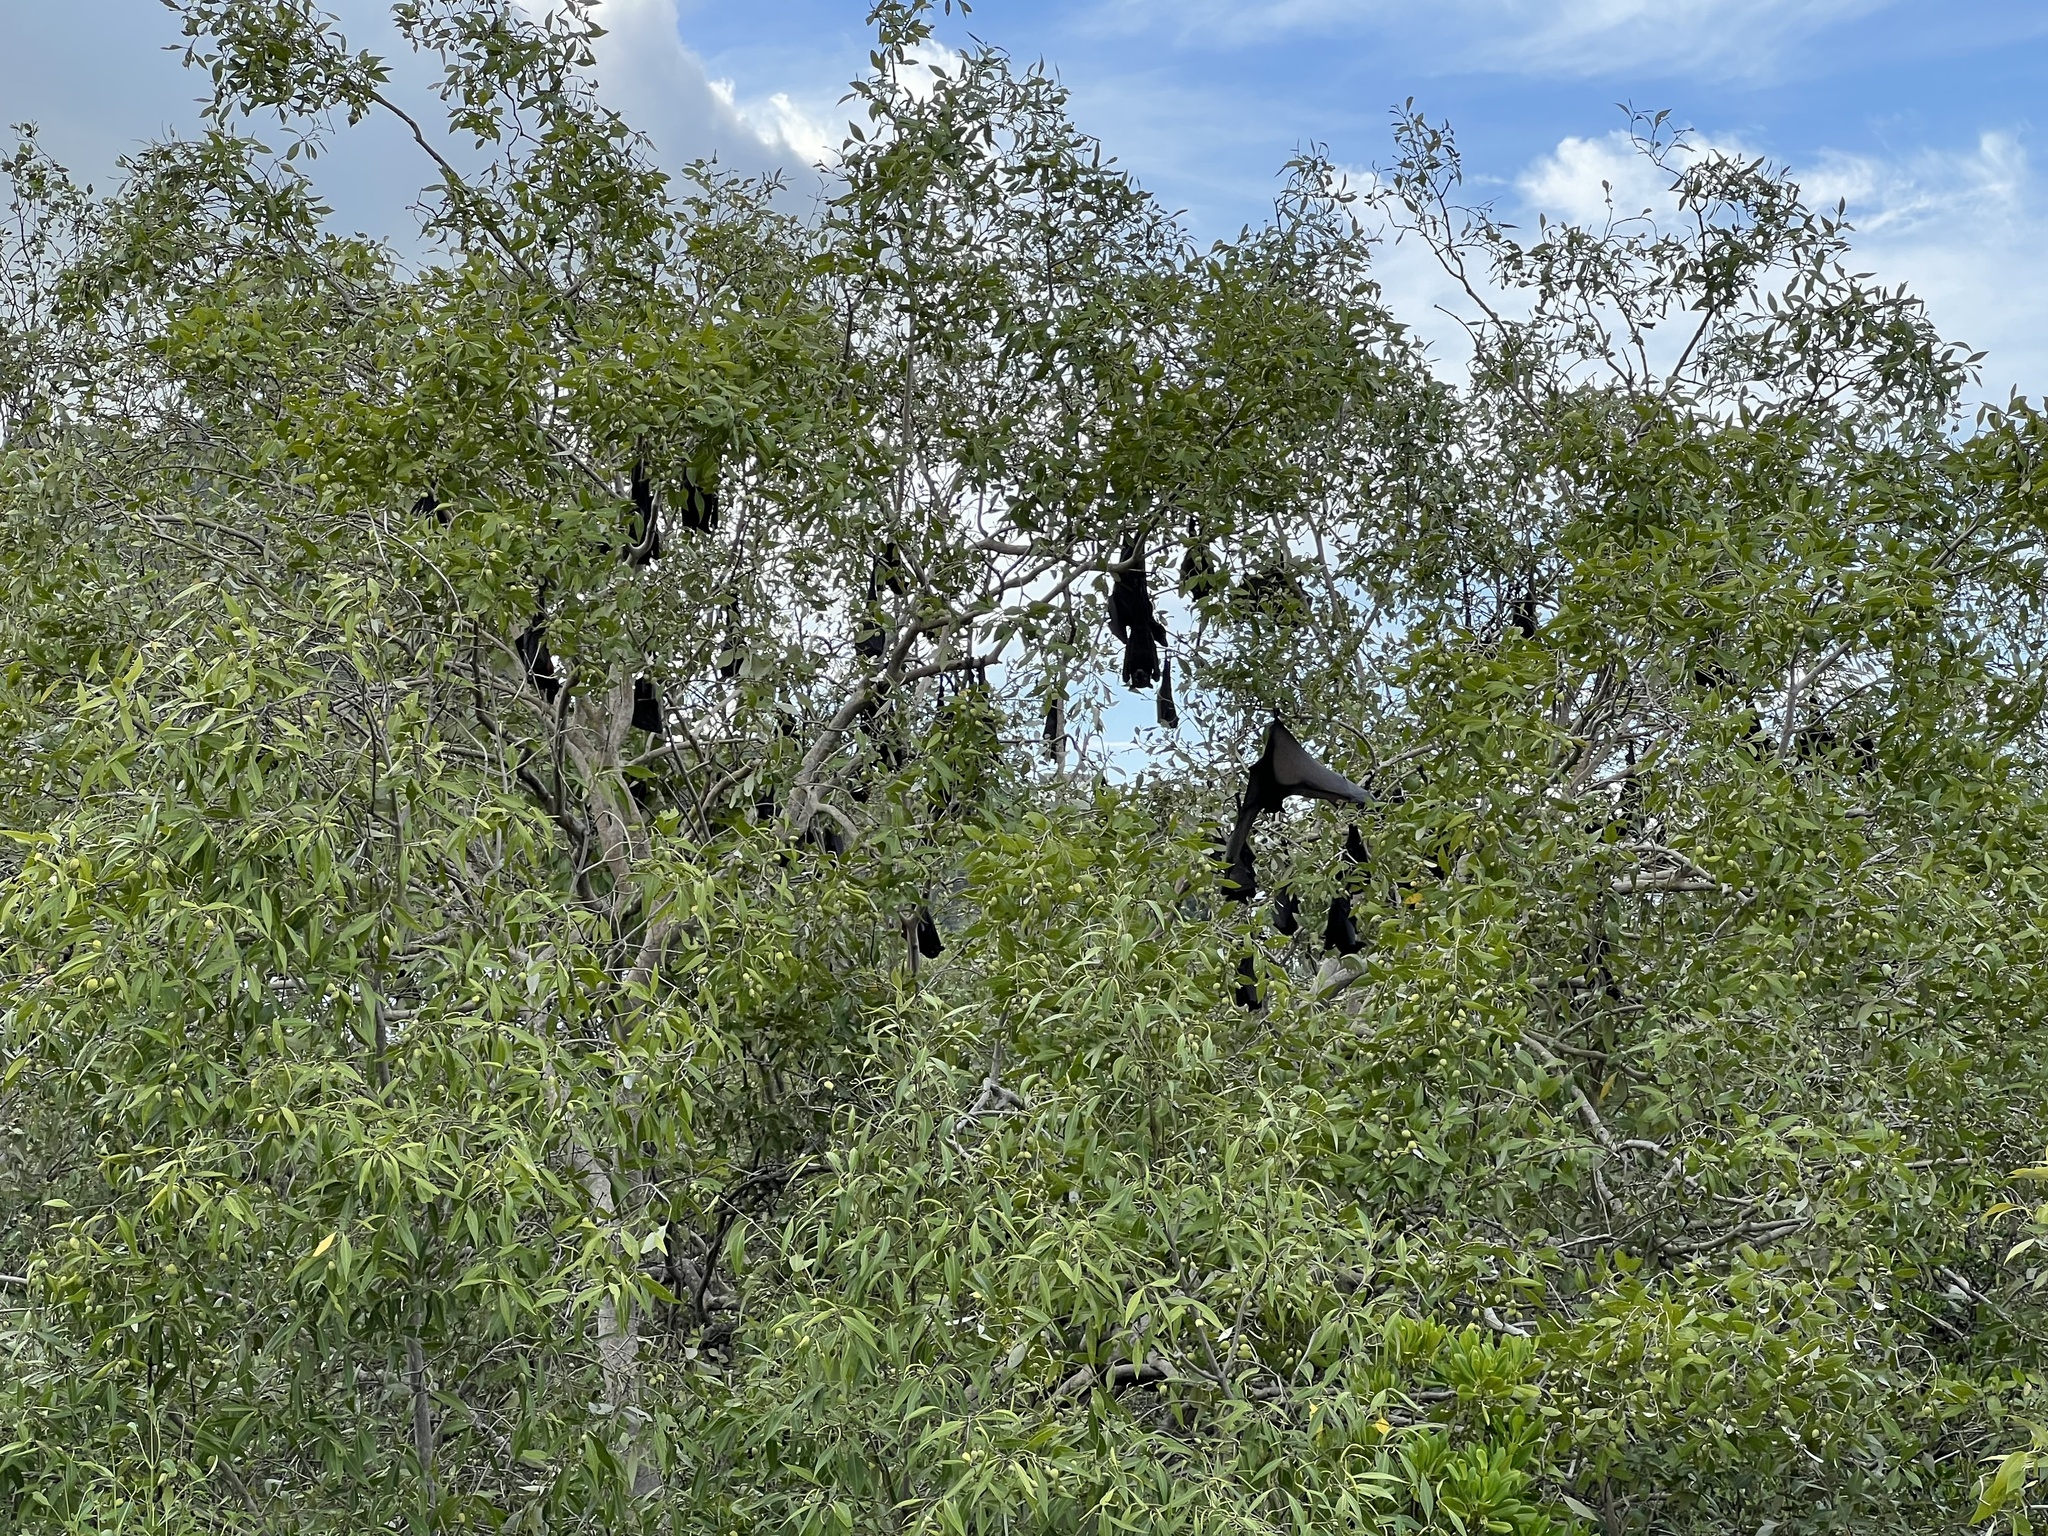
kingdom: Animalia
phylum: Chordata
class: Mammalia
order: Chiroptera
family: Pteropodidae
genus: Pteropus
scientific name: Pteropus alecto
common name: Black flying fox
